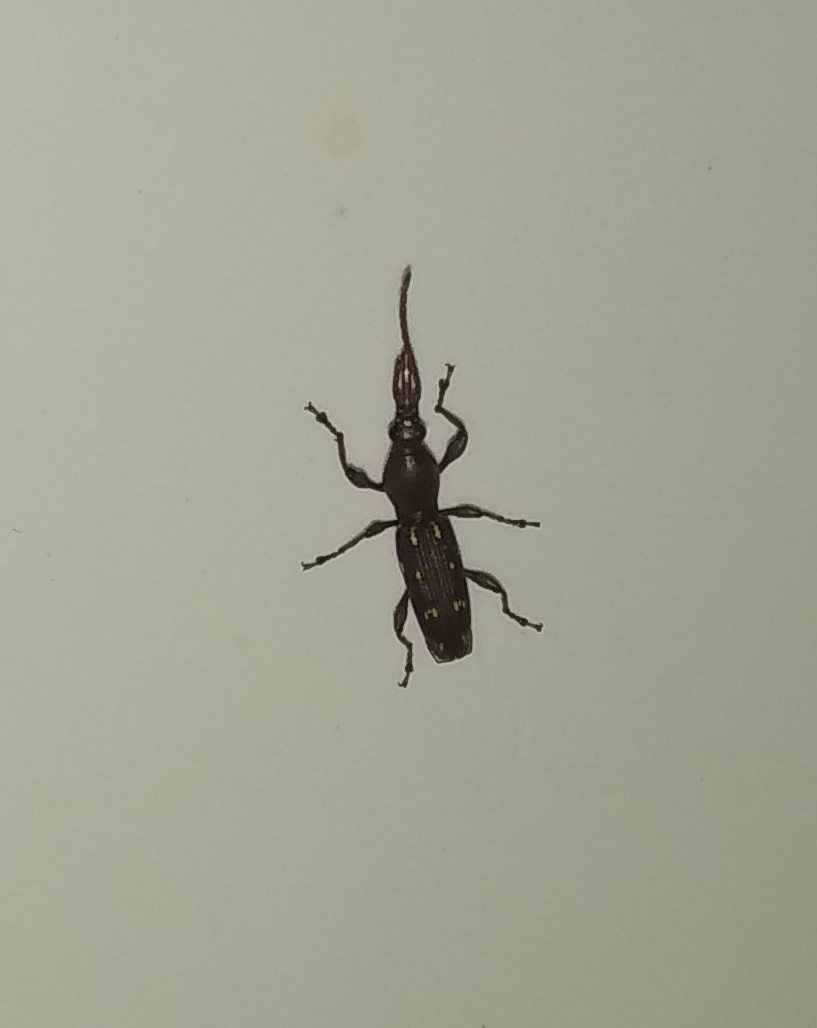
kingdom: Animalia
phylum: Arthropoda
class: Insecta
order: Coleoptera
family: Brentidae
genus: Orfilaia
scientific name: Orfilaia truncata
